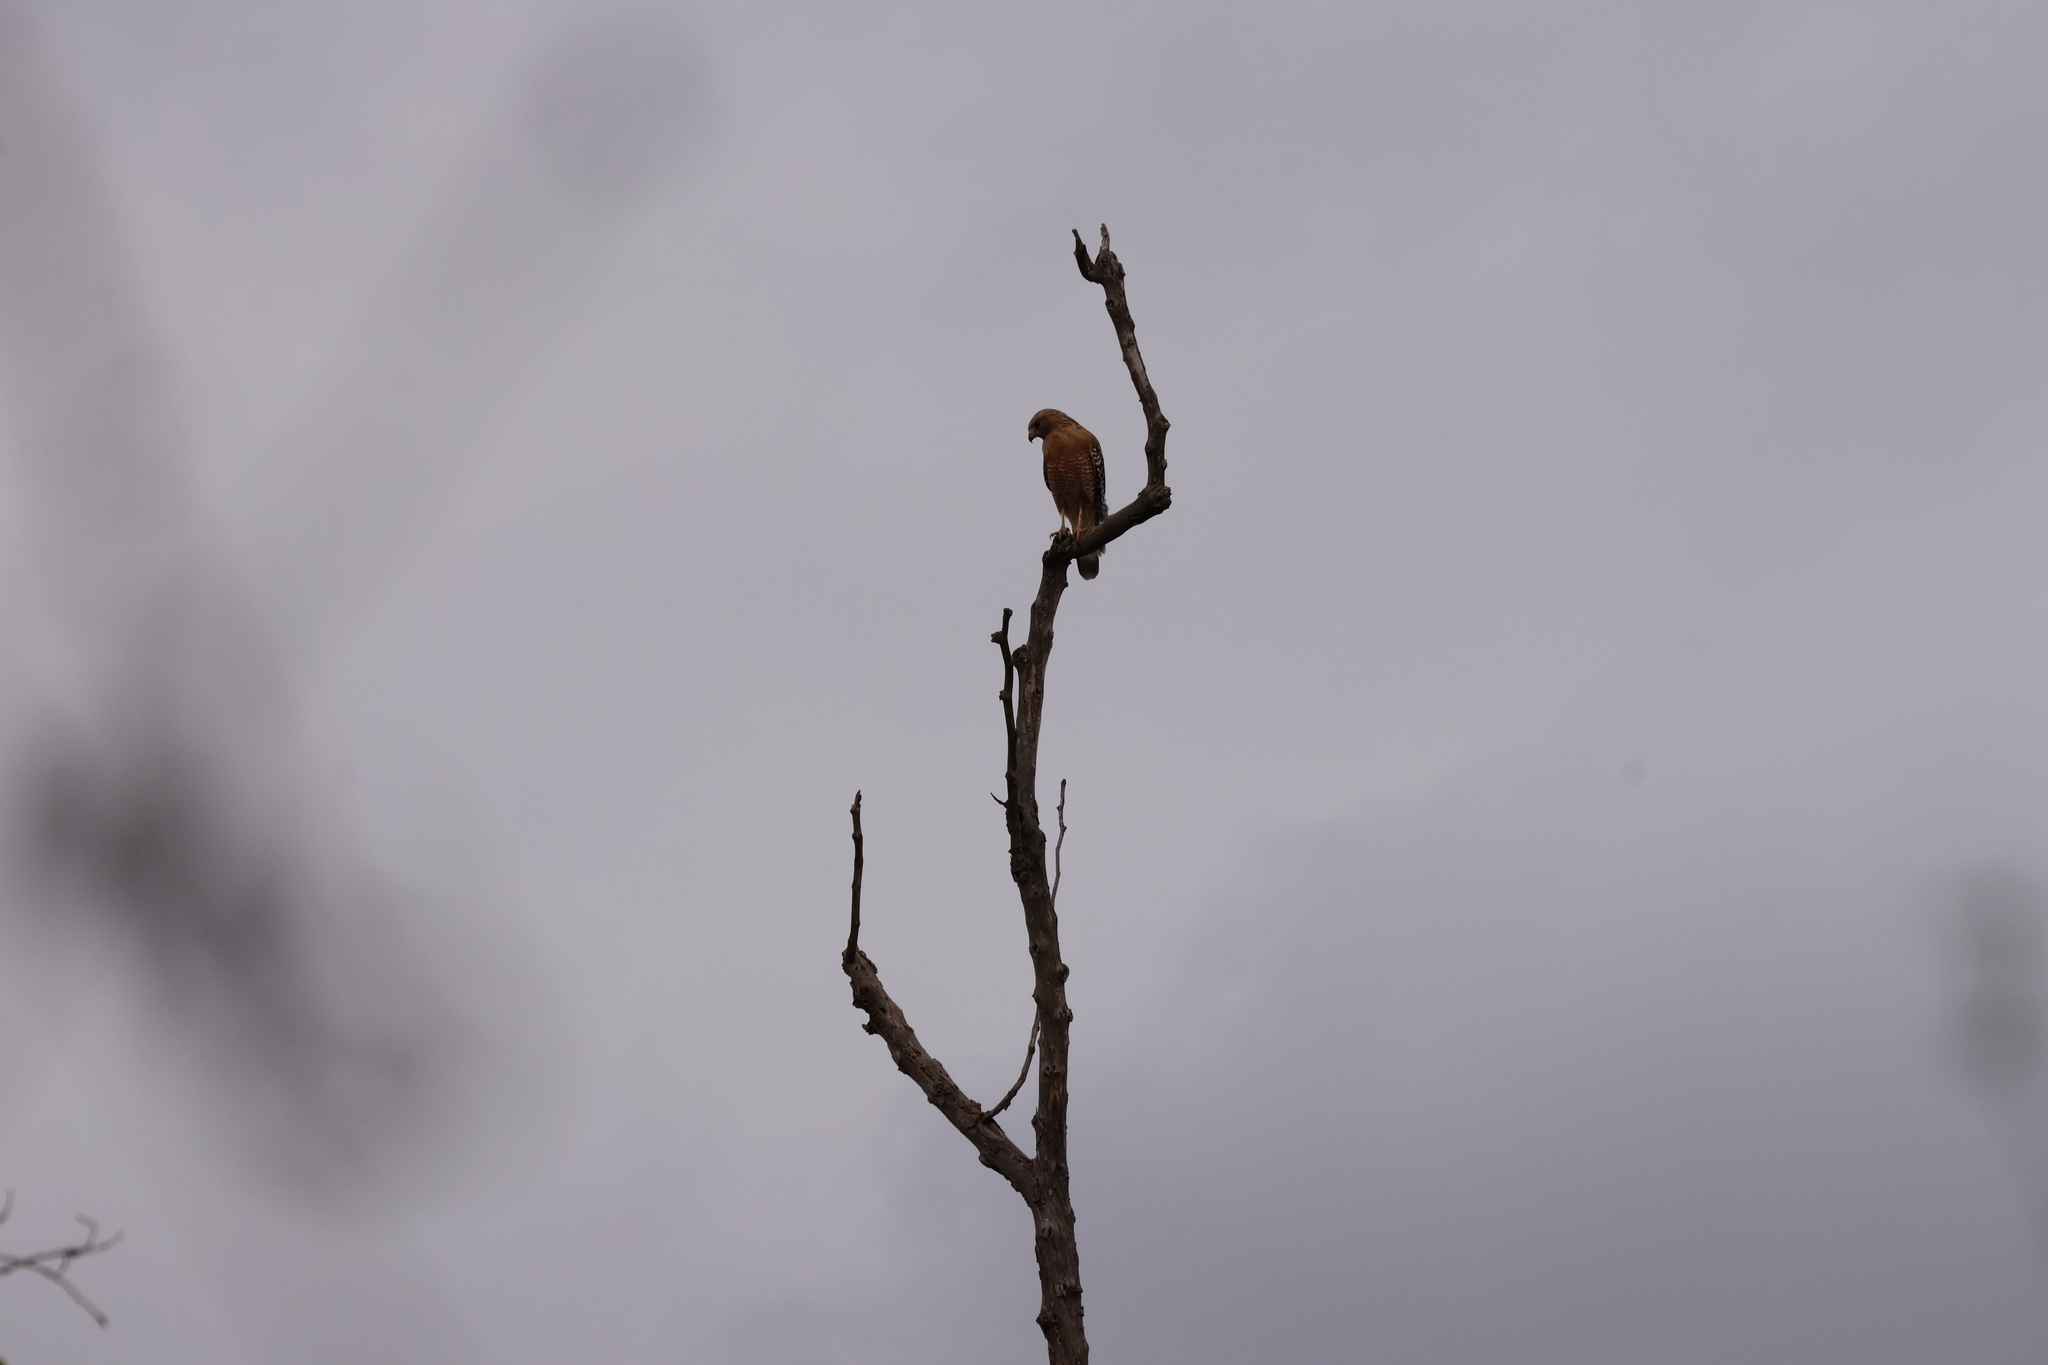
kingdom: Animalia
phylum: Chordata
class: Aves
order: Accipitriformes
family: Accipitridae
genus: Buteo
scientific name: Buteo lineatus
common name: Red-shouldered hawk
